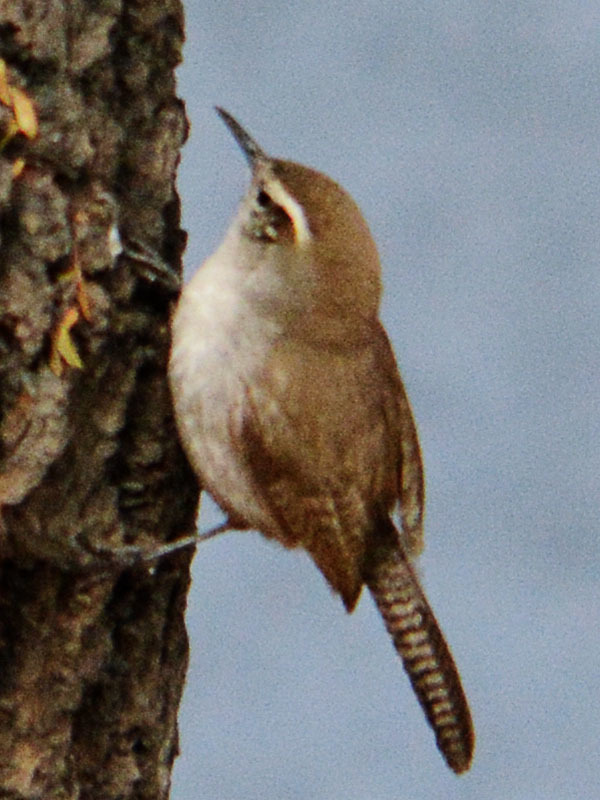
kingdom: Animalia
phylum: Chordata
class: Aves
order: Passeriformes
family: Troglodytidae
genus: Thryomanes
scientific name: Thryomanes bewickii
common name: Bewick's wren
